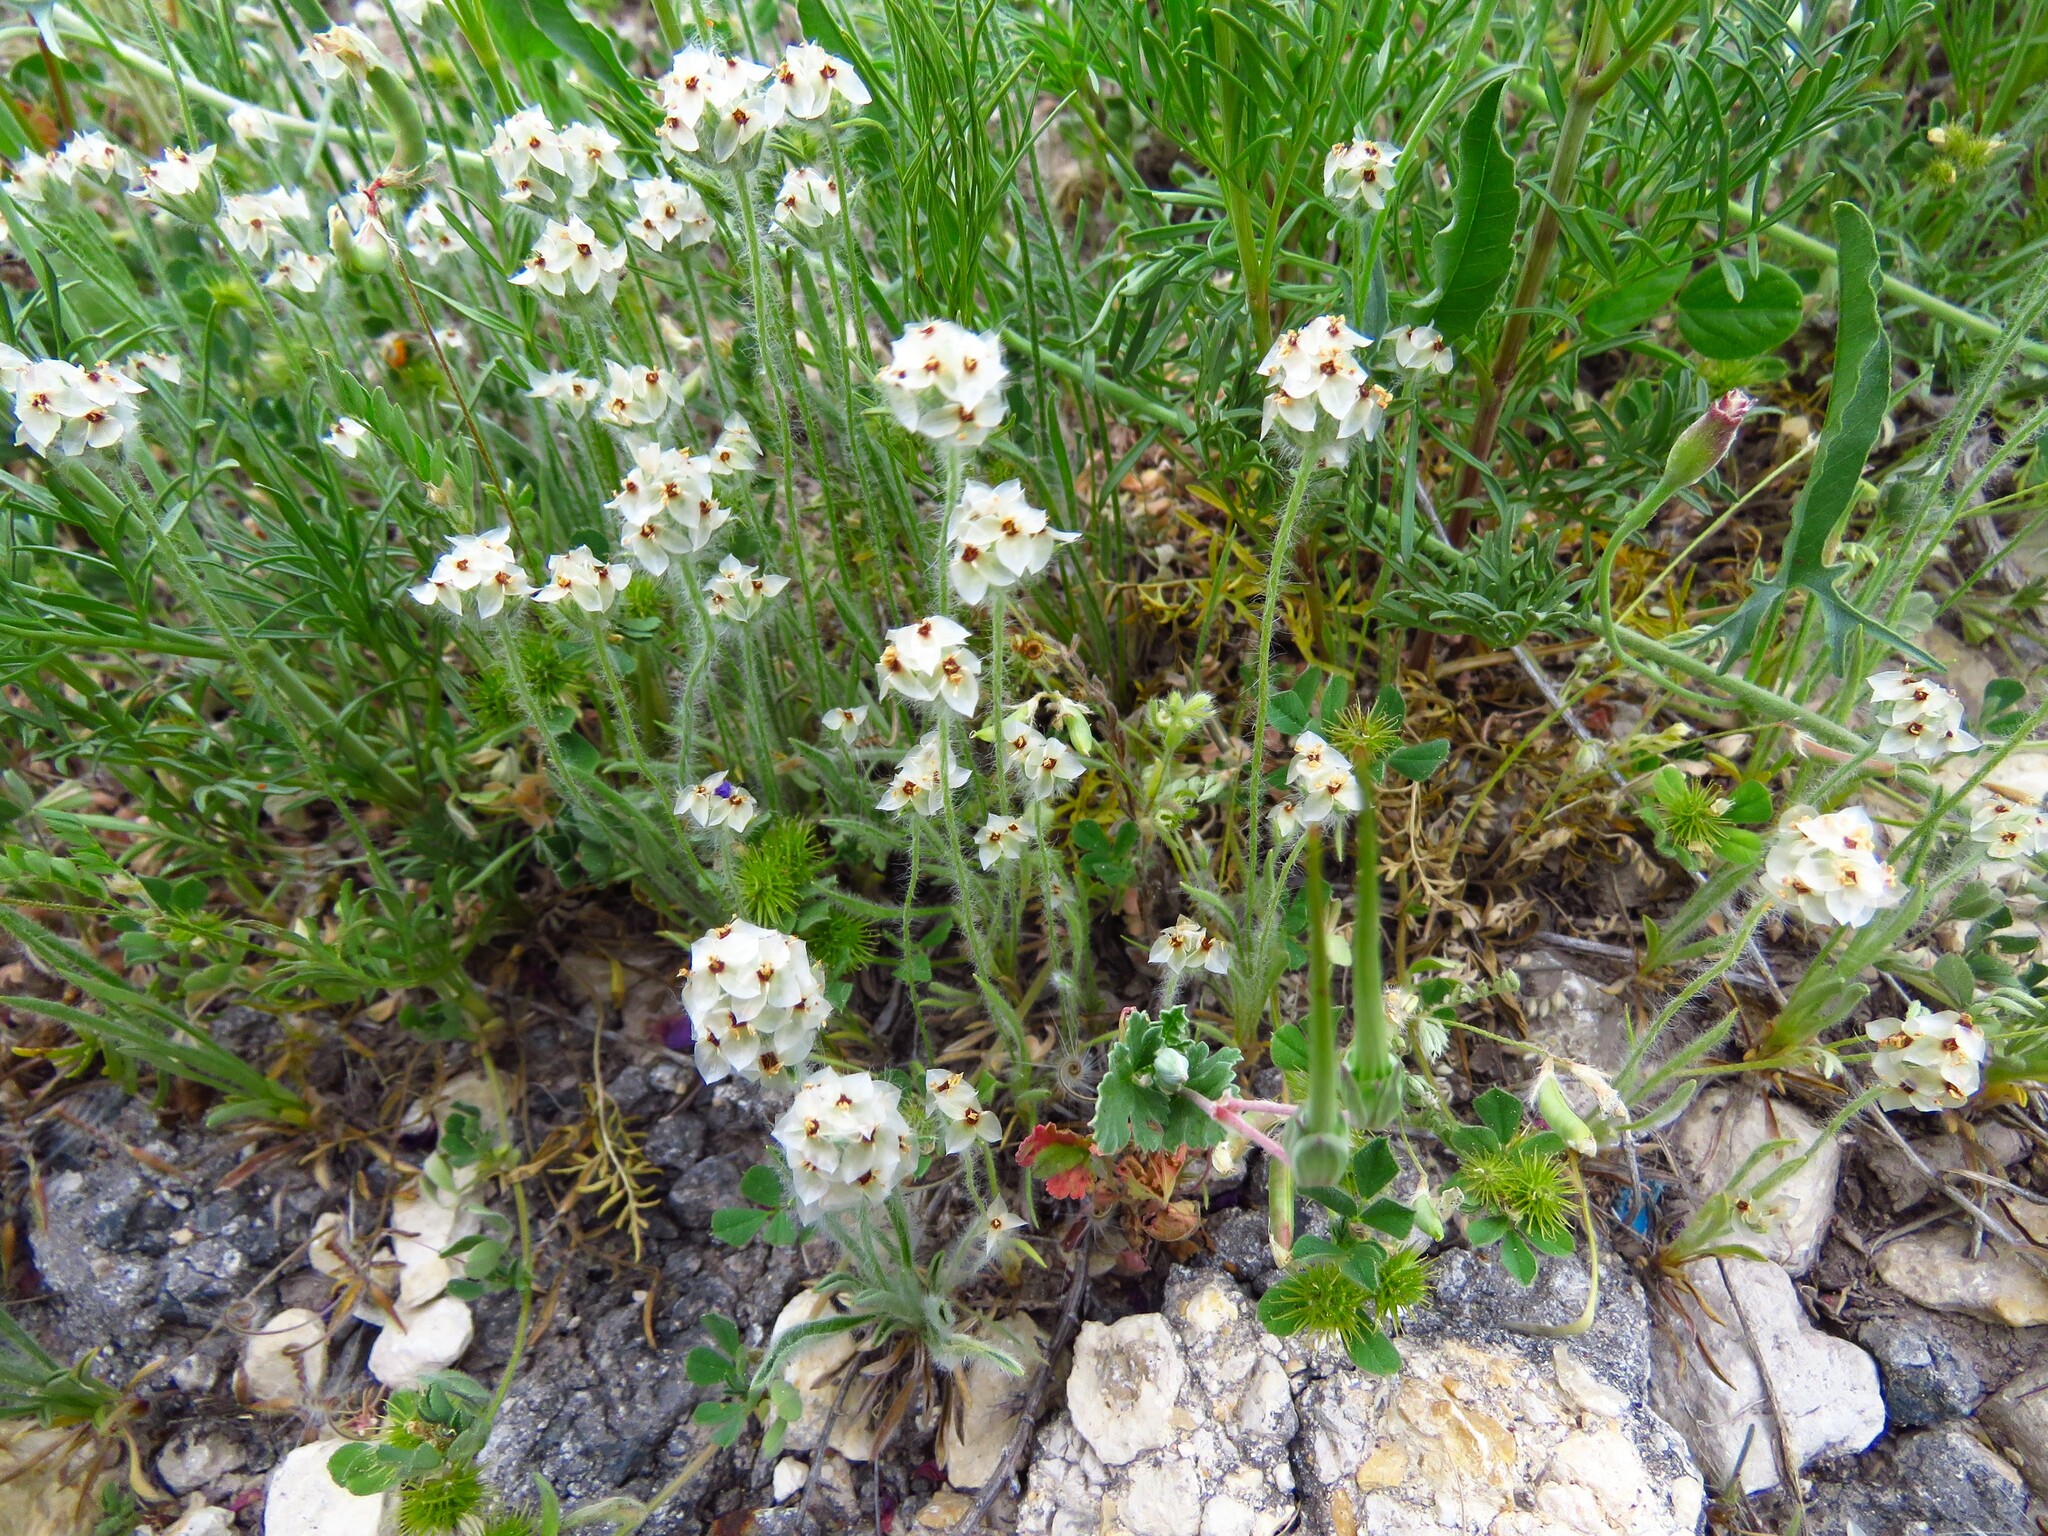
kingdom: Plantae
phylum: Tracheophyta
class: Magnoliopsida
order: Lamiales
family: Plantaginaceae
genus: Plantago
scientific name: Plantago helleri
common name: Heller's plantain
